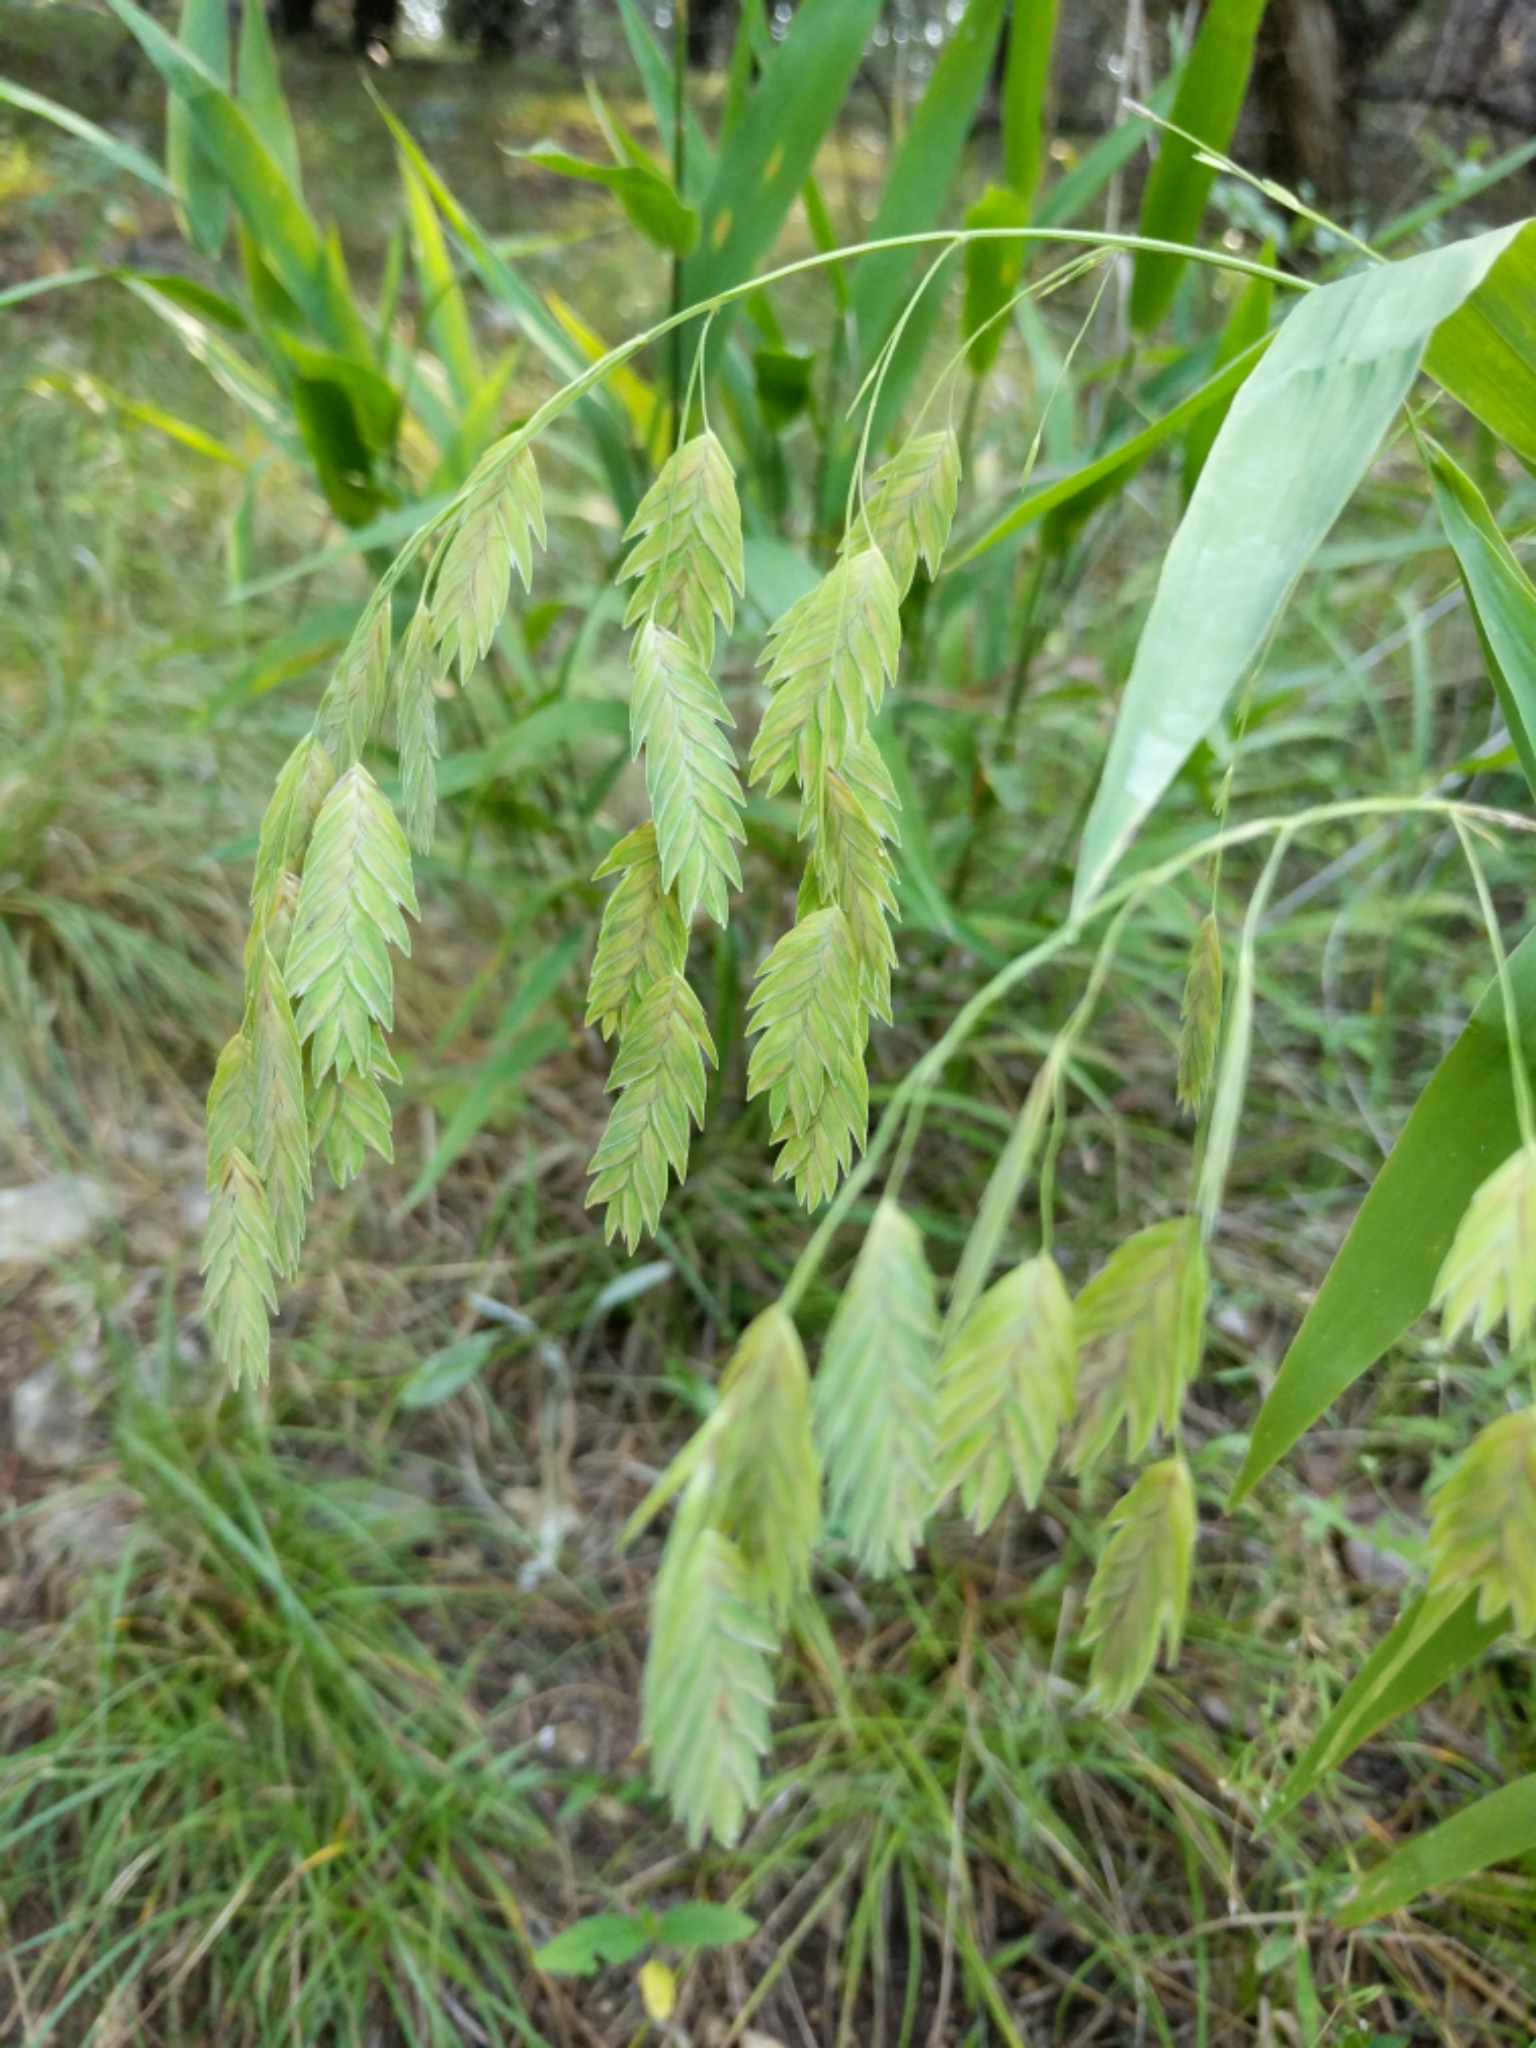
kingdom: Plantae
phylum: Tracheophyta
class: Liliopsida
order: Poales
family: Poaceae
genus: Chasmanthium
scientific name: Chasmanthium latifolium
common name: Broad-leaved chasmanthium
